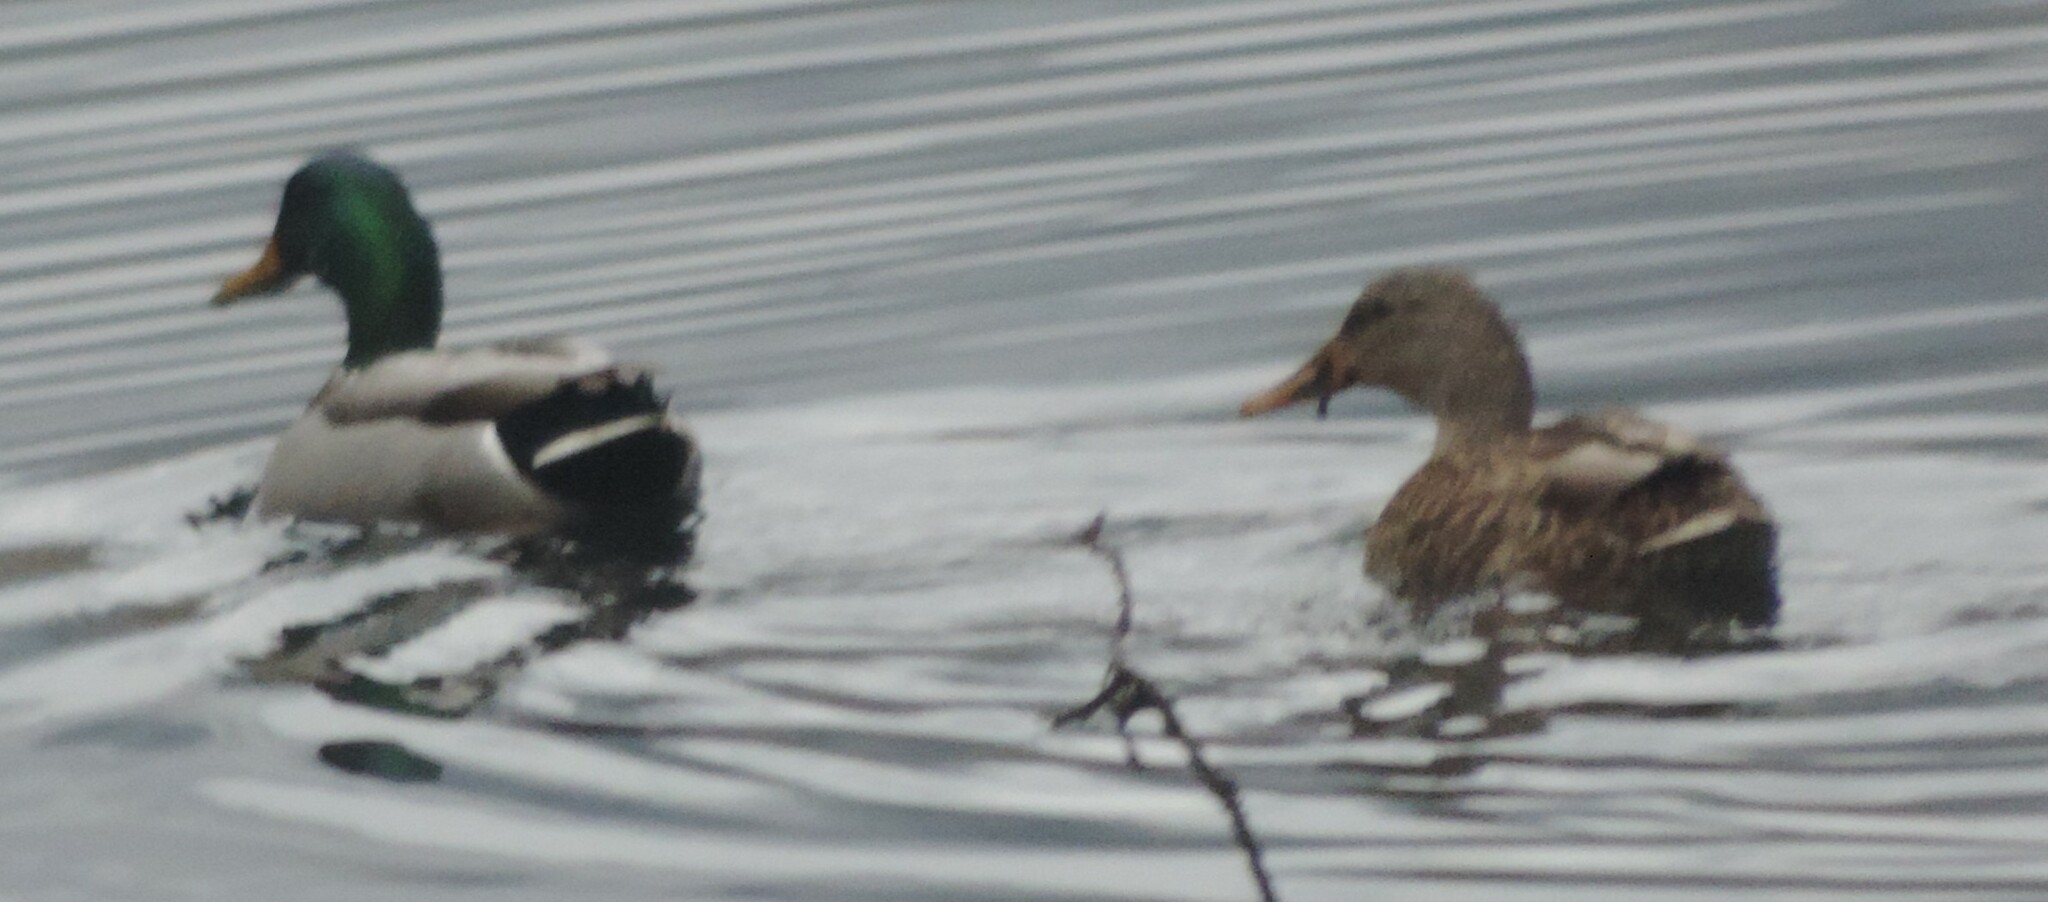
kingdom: Animalia
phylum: Chordata
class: Aves
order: Anseriformes
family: Anatidae
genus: Anas
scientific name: Anas platyrhynchos
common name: Mallard
